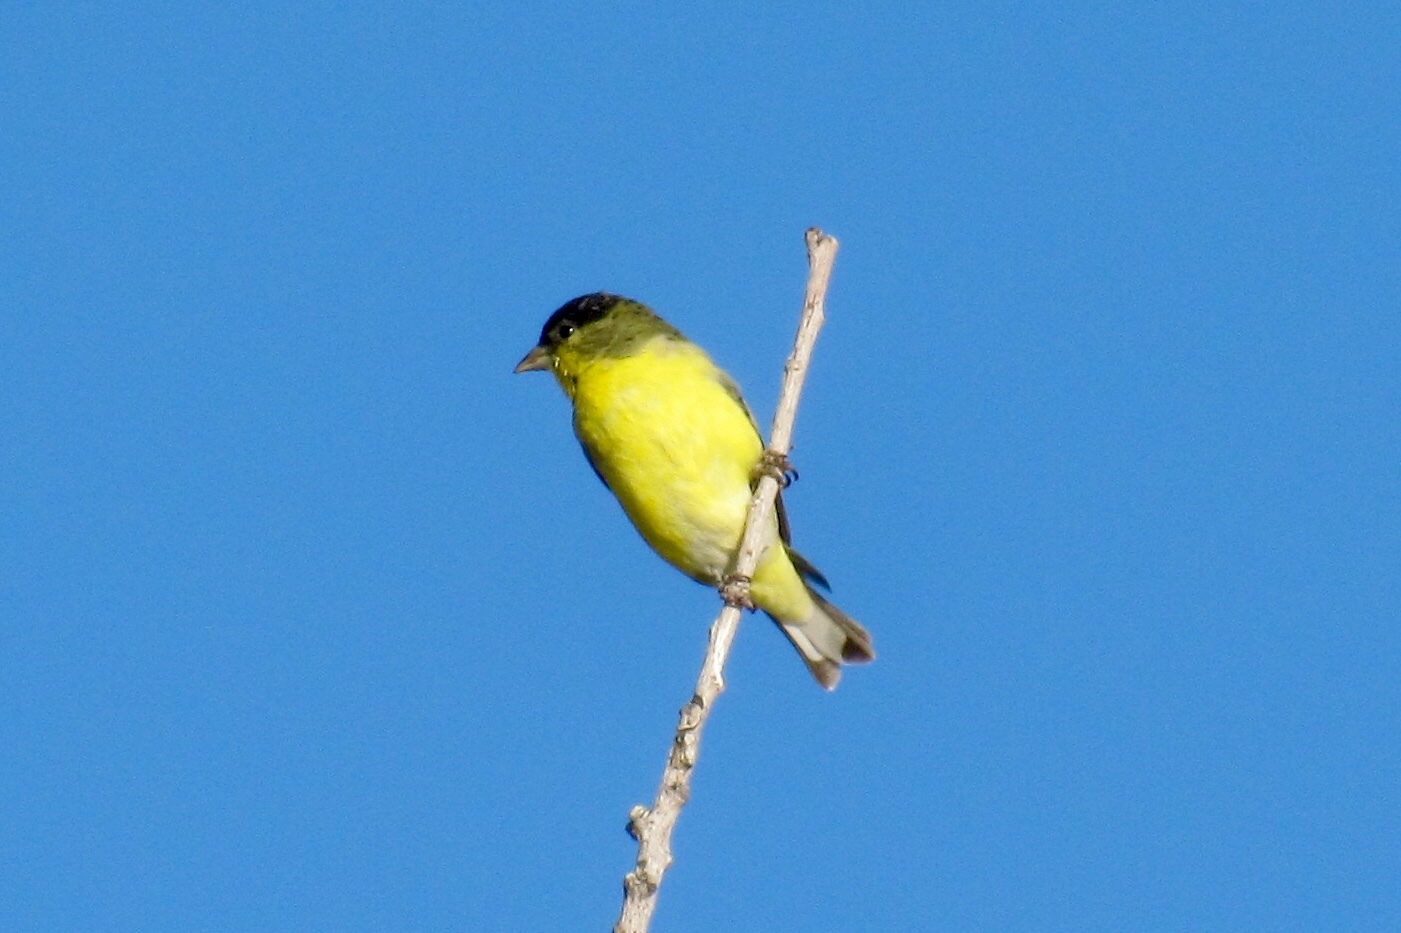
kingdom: Animalia
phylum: Chordata
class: Aves
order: Passeriformes
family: Fringillidae
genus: Spinus
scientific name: Spinus psaltria
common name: Lesser goldfinch
